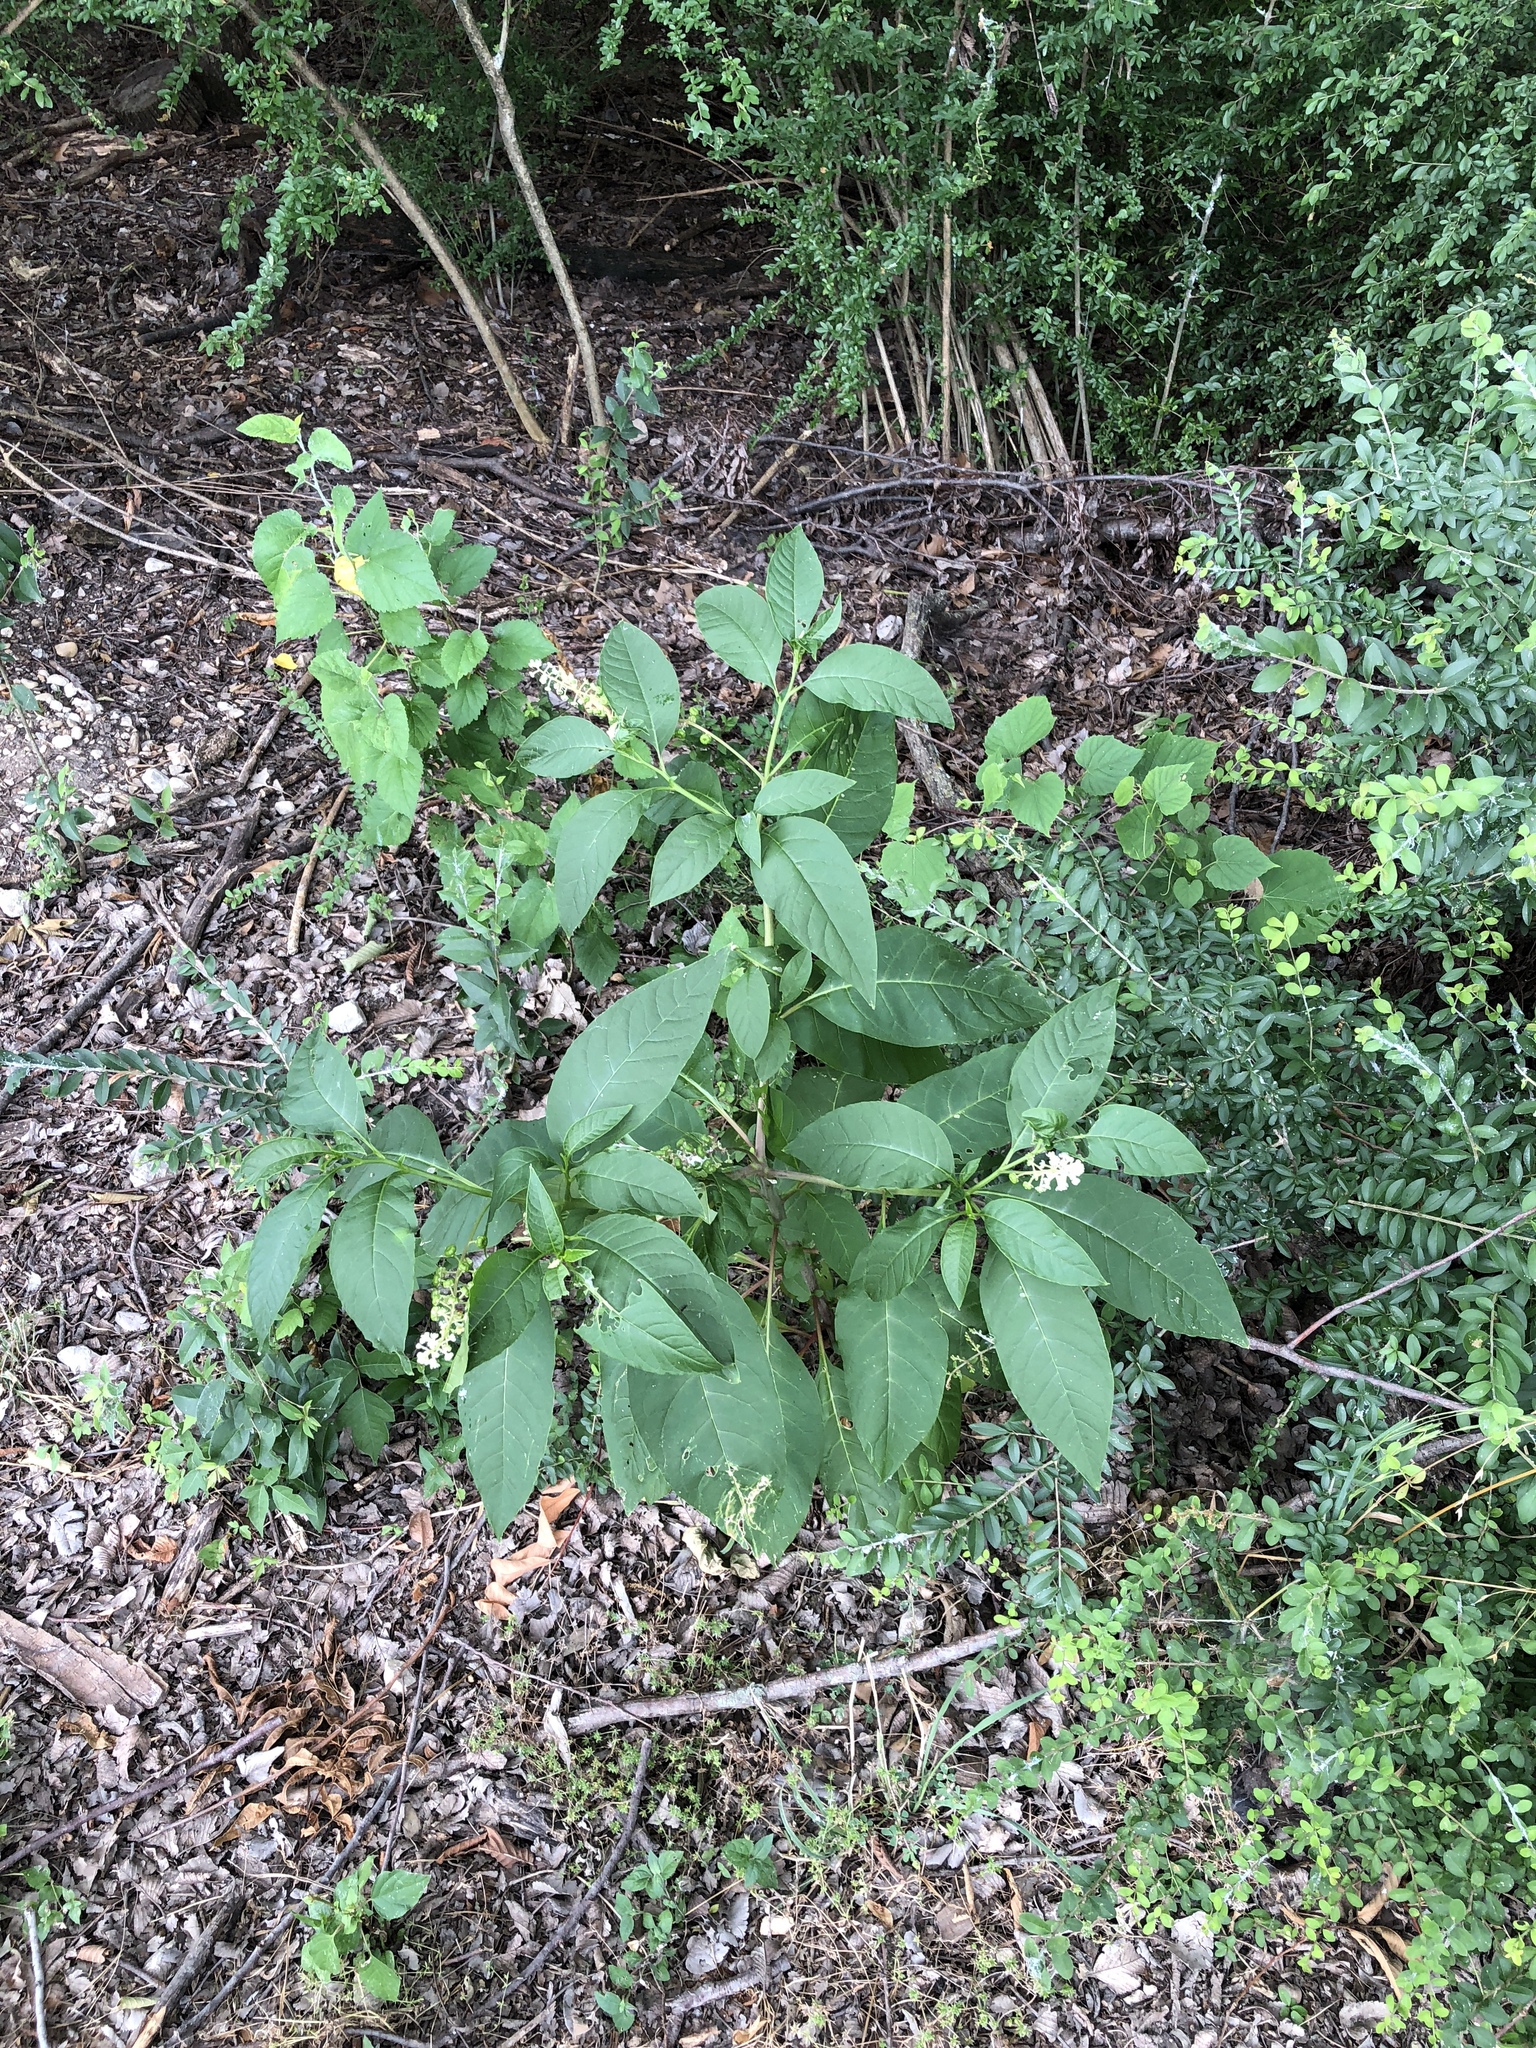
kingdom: Plantae
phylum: Tracheophyta
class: Magnoliopsida
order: Caryophyllales
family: Phytolaccaceae
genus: Phytolacca
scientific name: Phytolacca americana
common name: American pokeweed
